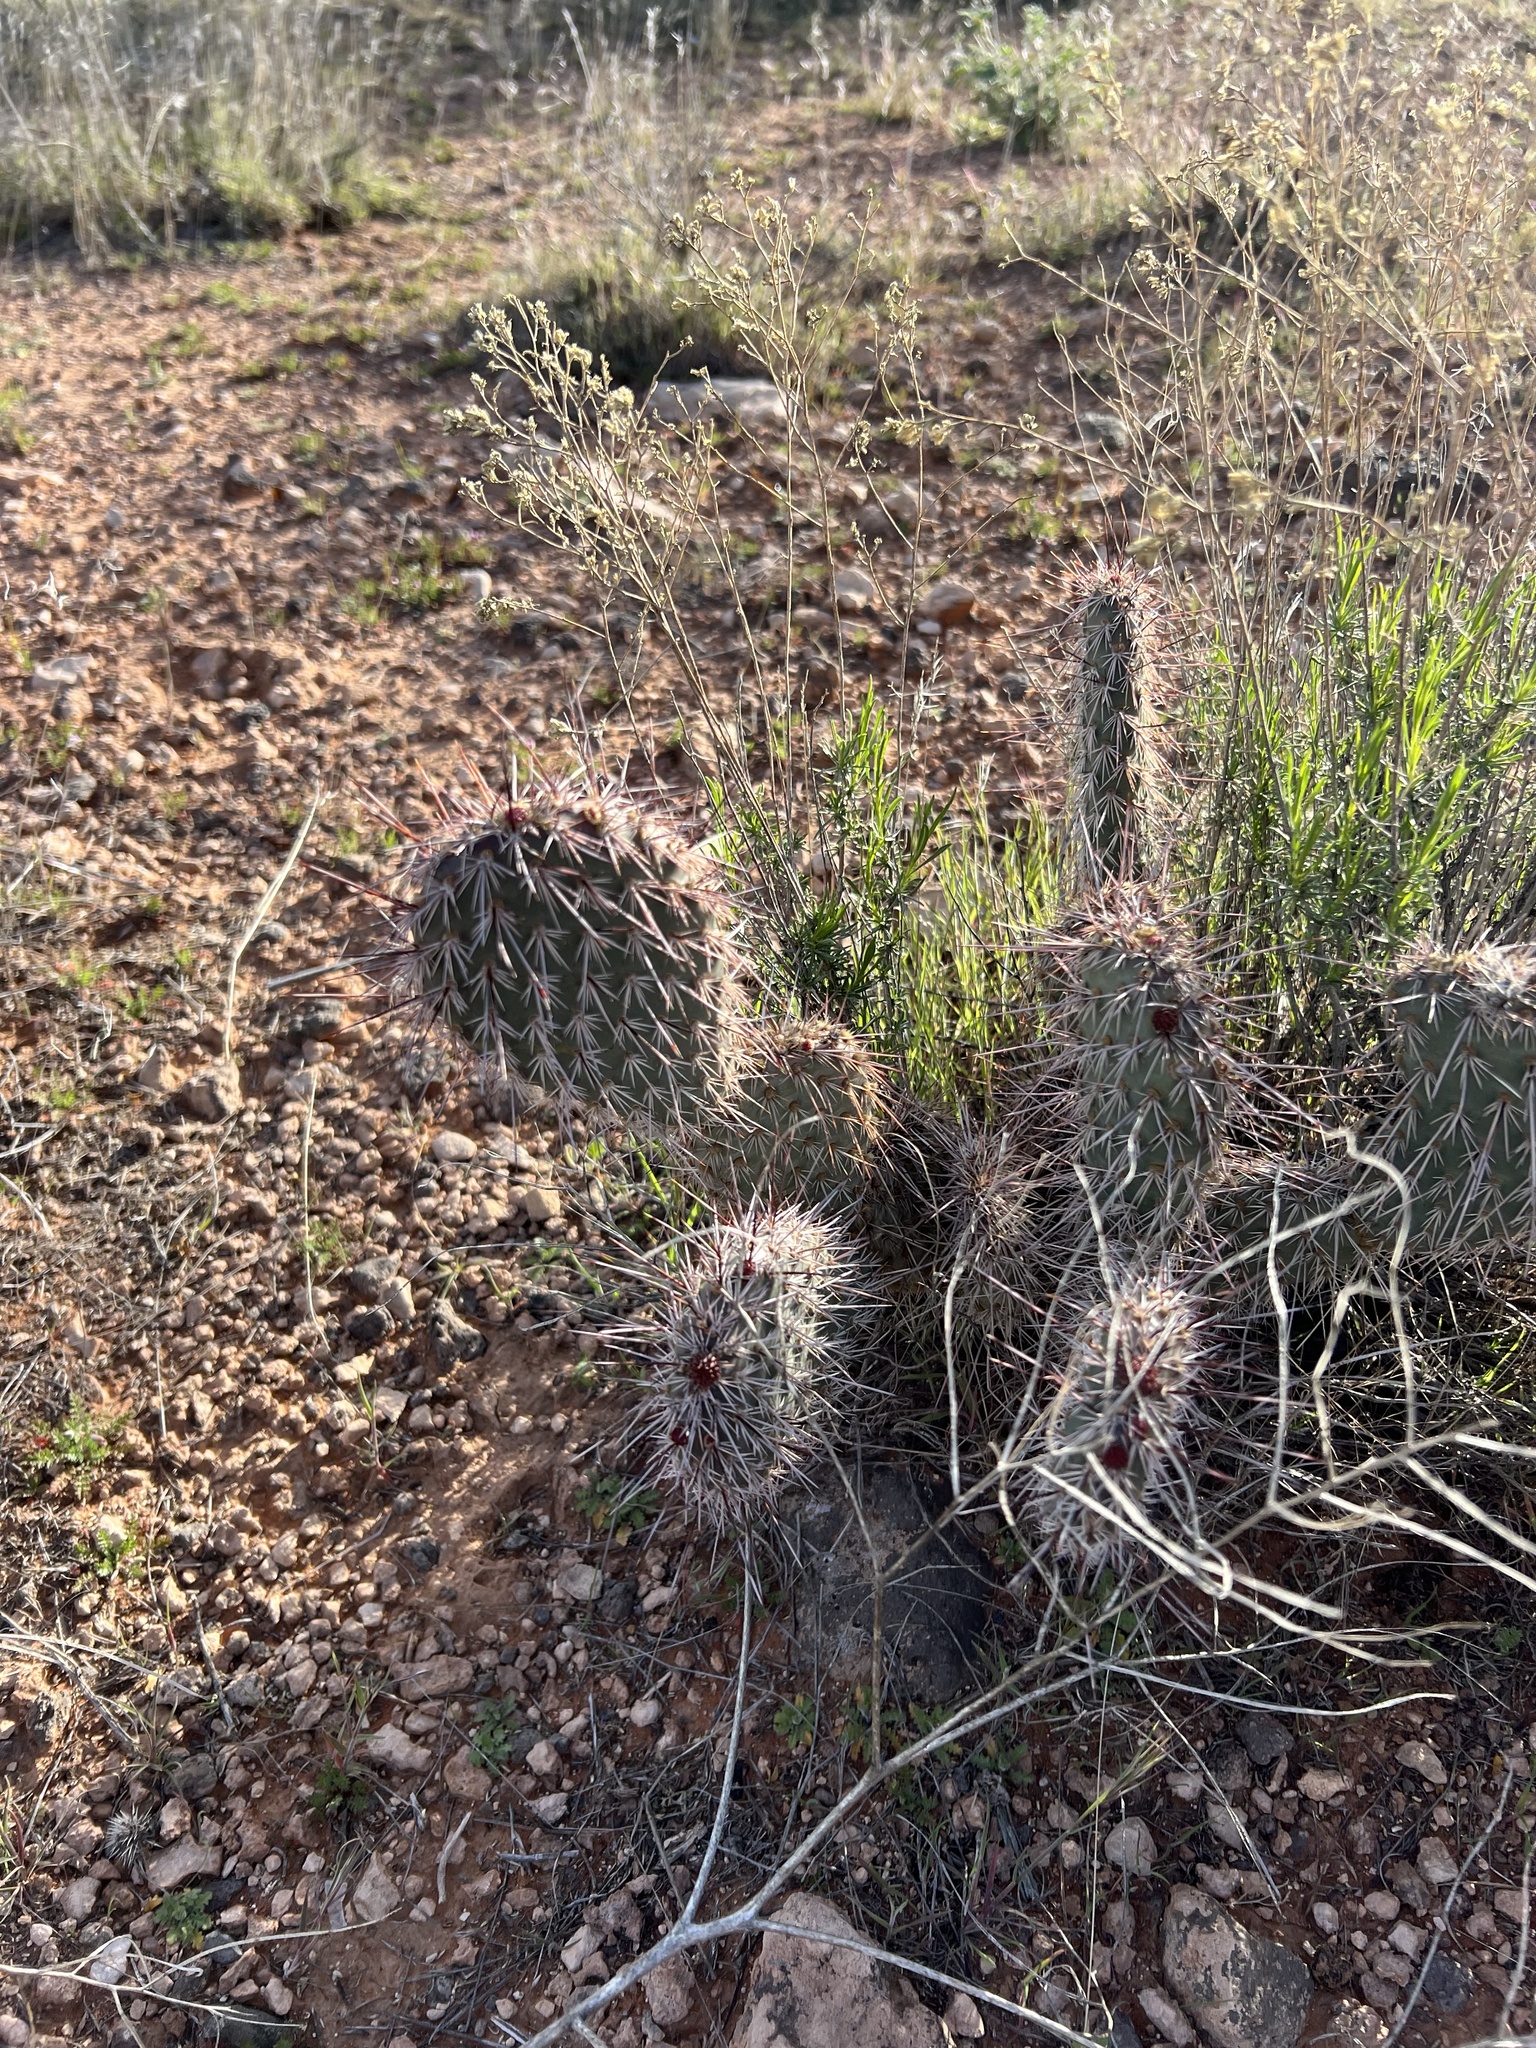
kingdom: Plantae
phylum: Tracheophyta
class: Magnoliopsida
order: Caryophyllales
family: Cactaceae
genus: Opuntia
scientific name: Opuntia polyacantha
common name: Plains prickly-pear
